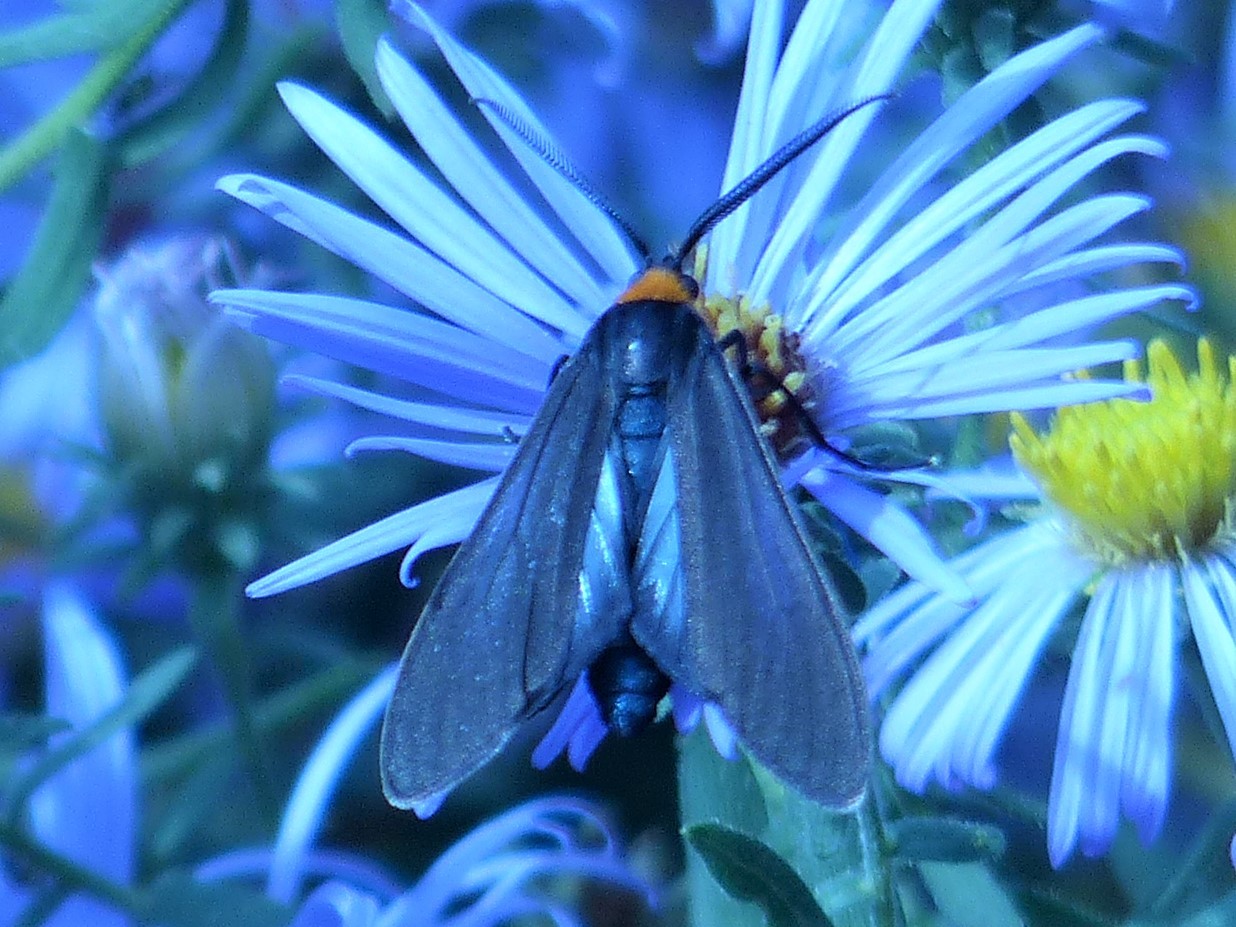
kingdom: Animalia
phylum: Arthropoda
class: Insecta
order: Lepidoptera
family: Erebidae
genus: Cisseps
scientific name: Cisseps fulvicollis
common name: Yellow-collared scape moth
